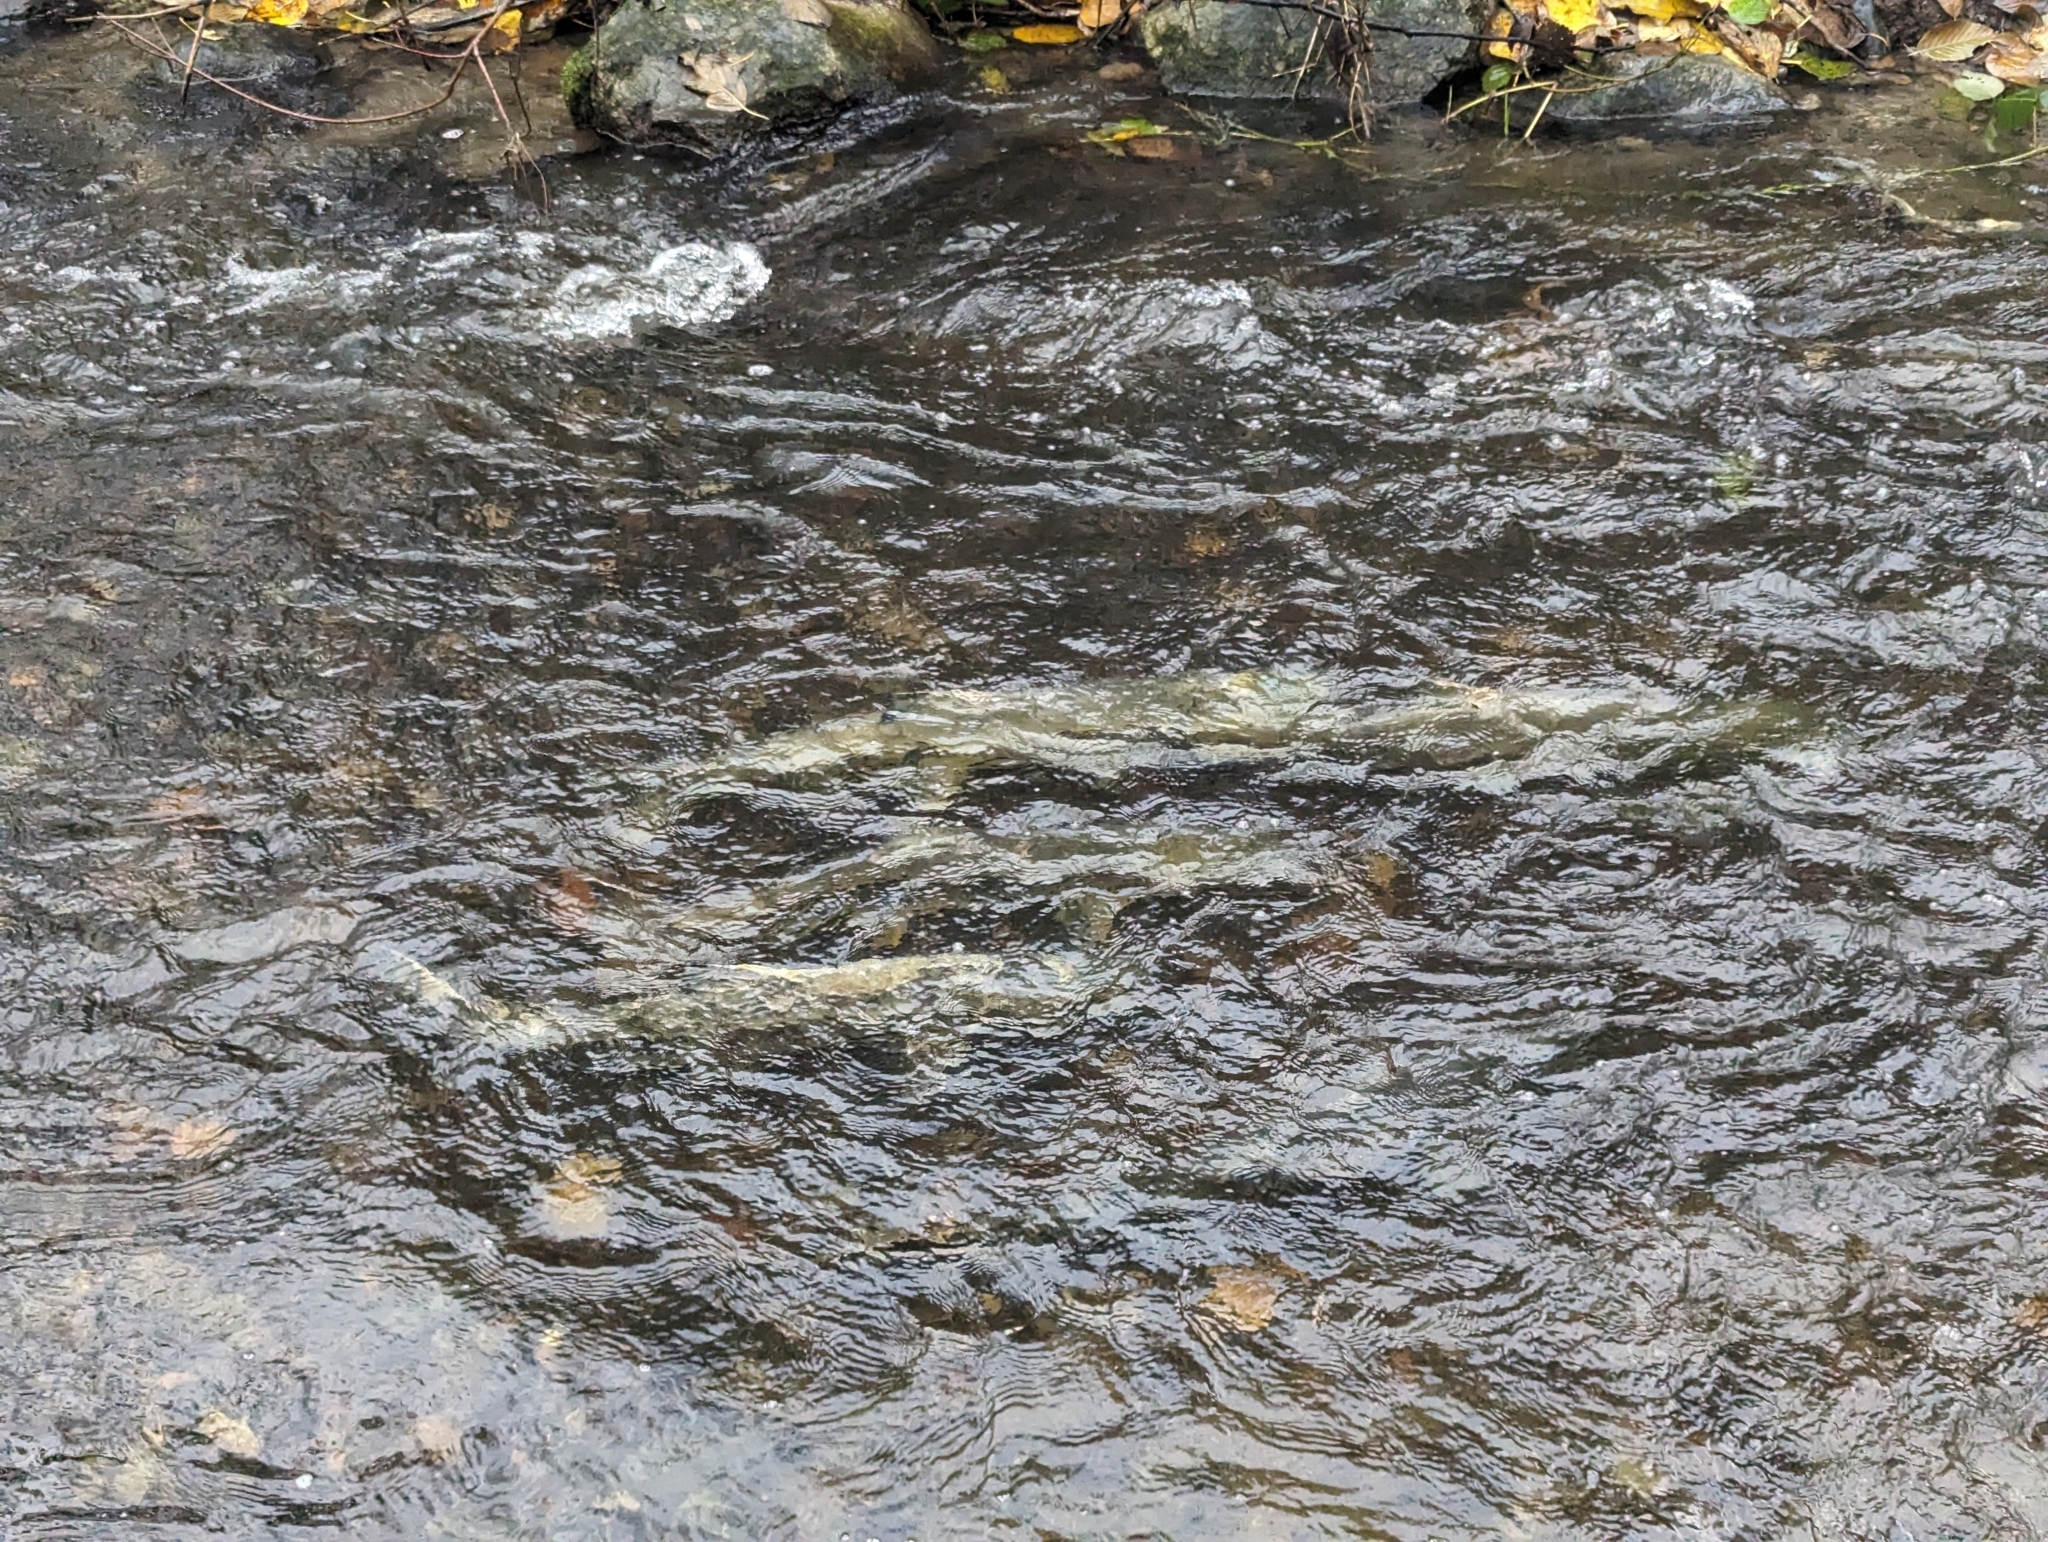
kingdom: Animalia
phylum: Chordata
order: Salmoniformes
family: Salmonidae
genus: Oncorhynchus
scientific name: Oncorhynchus keta
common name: Chum salmon
